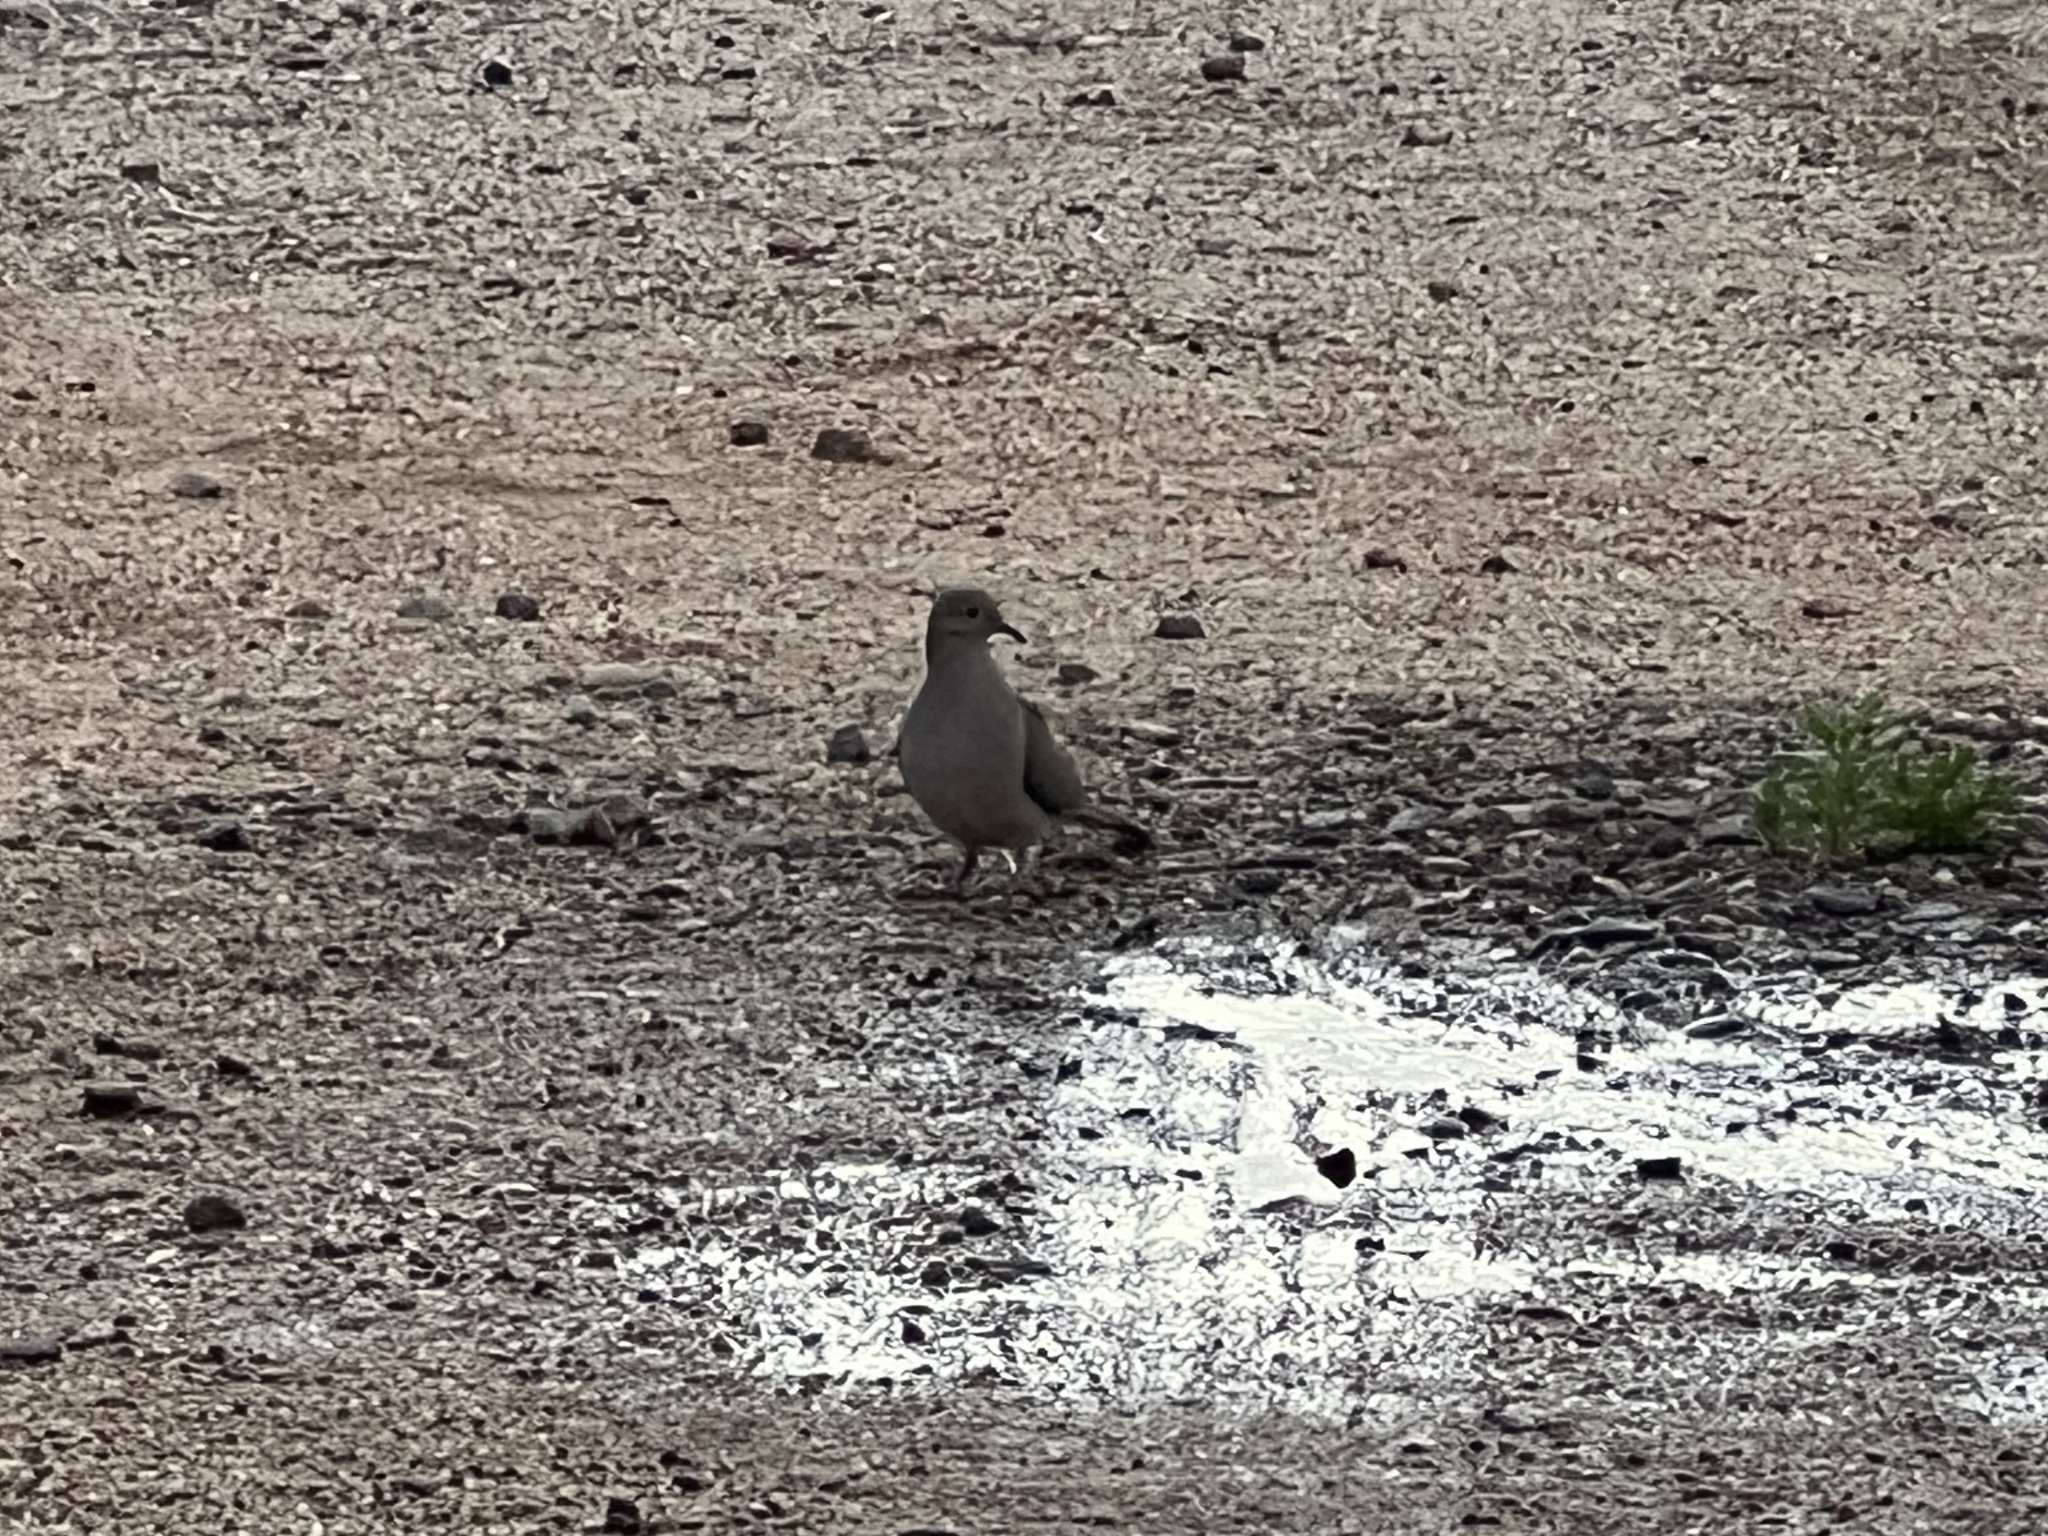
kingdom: Animalia
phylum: Chordata
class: Aves
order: Columbiformes
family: Columbidae
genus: Zenaida
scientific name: Zenaida macroura
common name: Mourning dove
